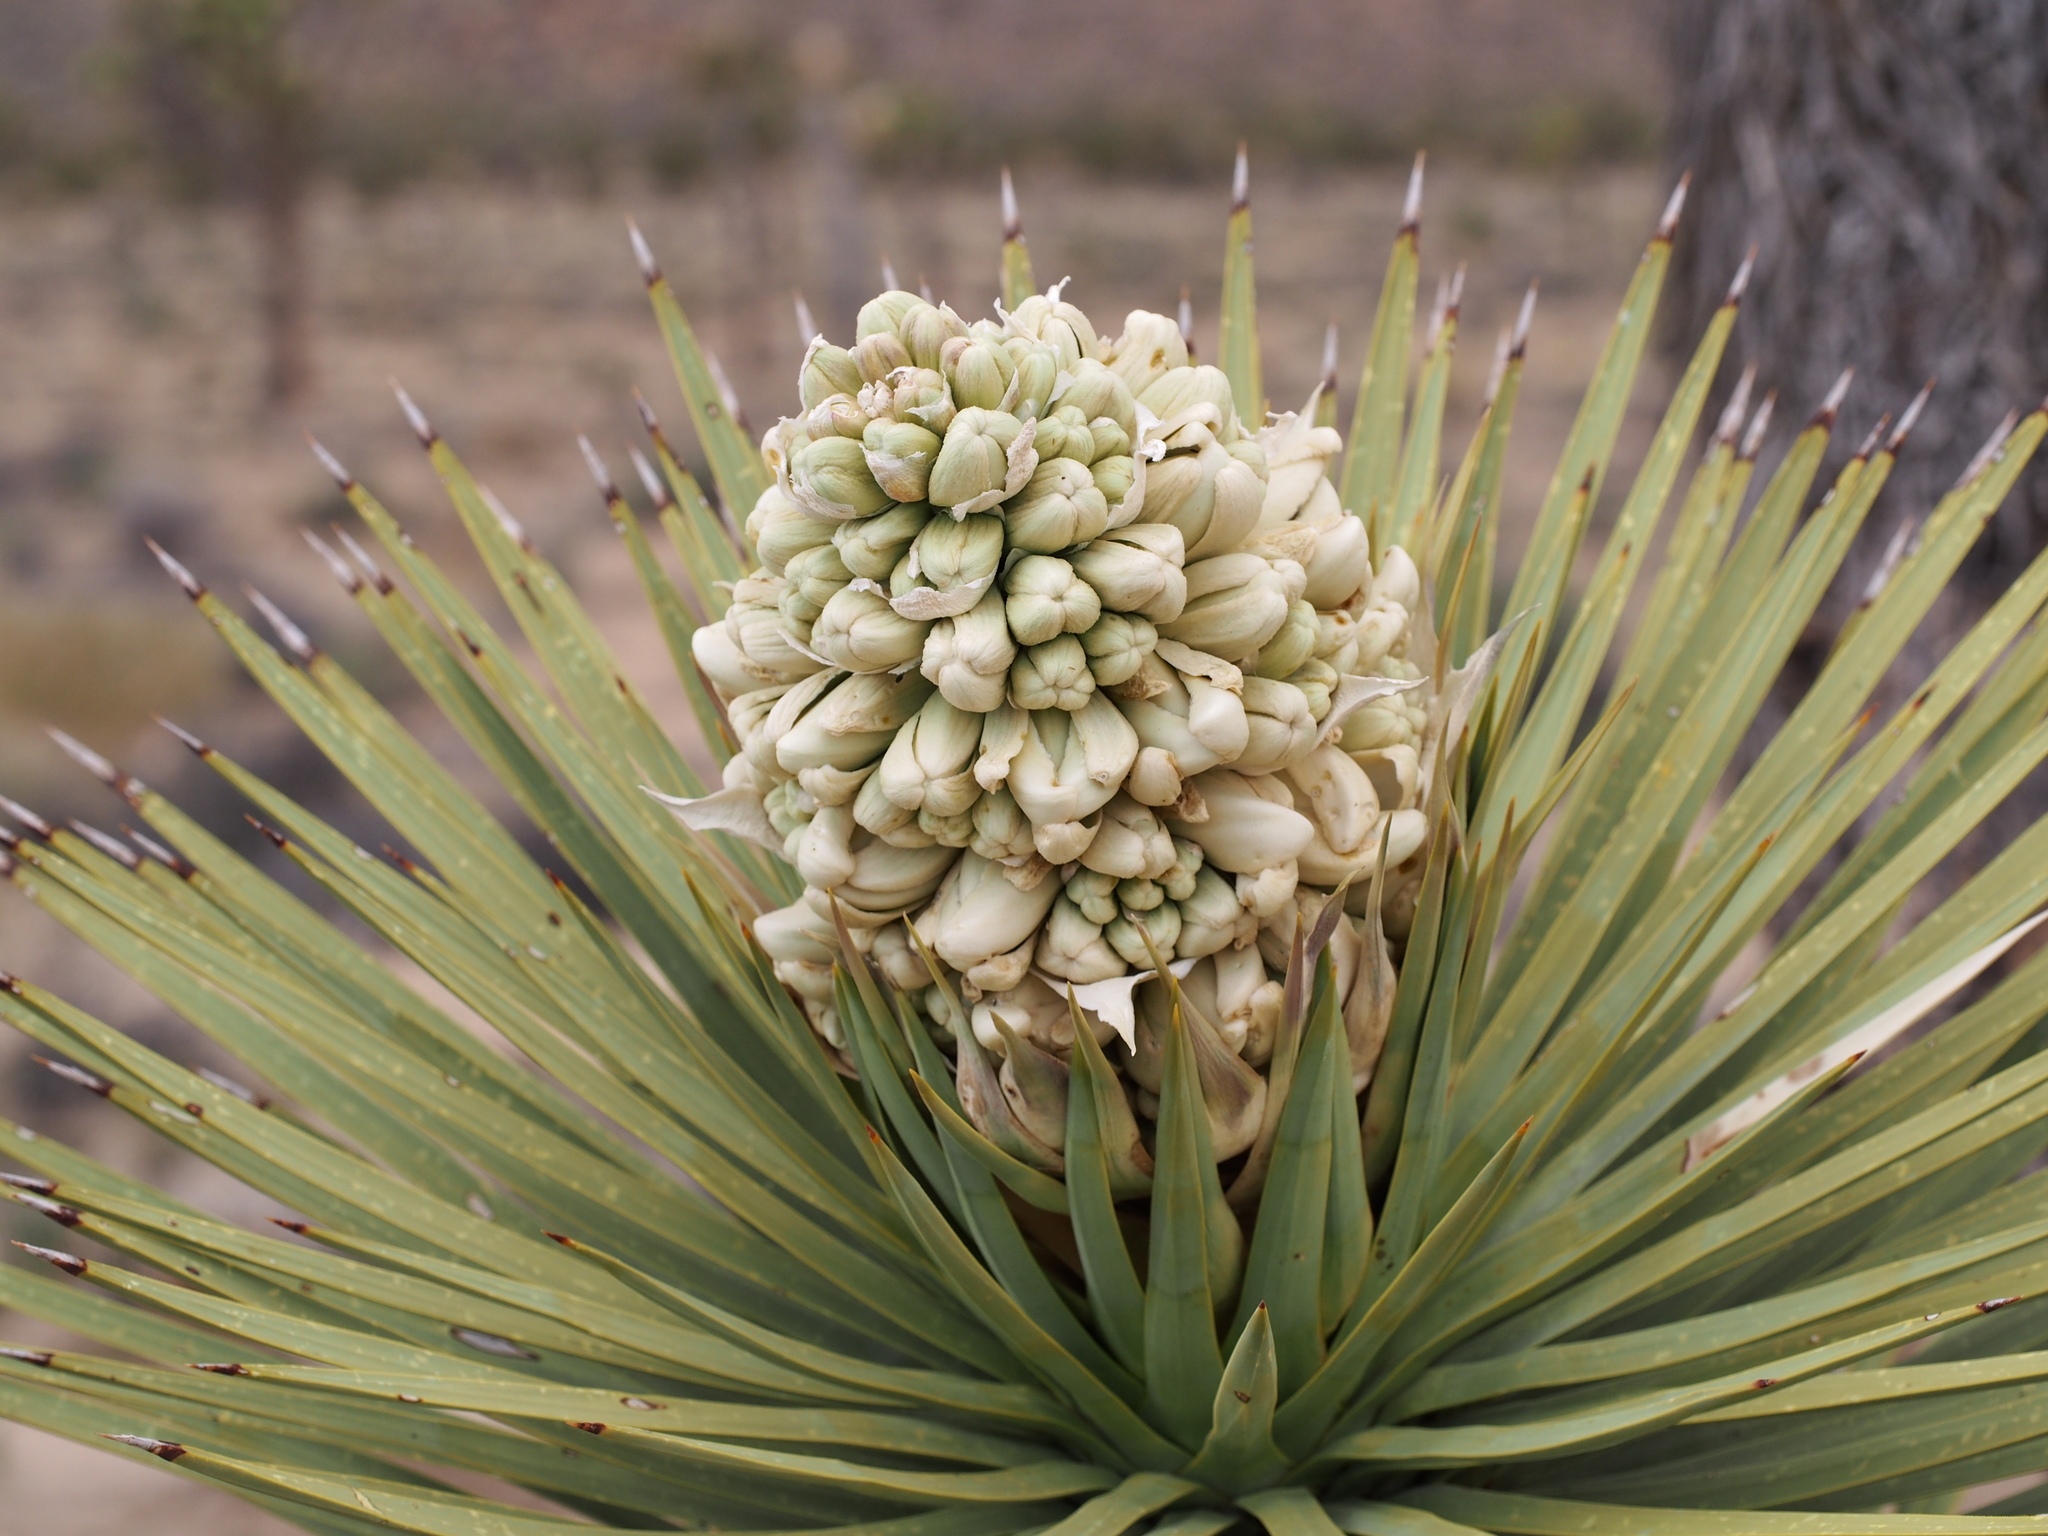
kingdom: Plantae
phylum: Tracheophyta
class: Liliopsida
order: Asparagales
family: Asparagaceae
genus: Yucca
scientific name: Yucca brevifolia
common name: Joshua tree
